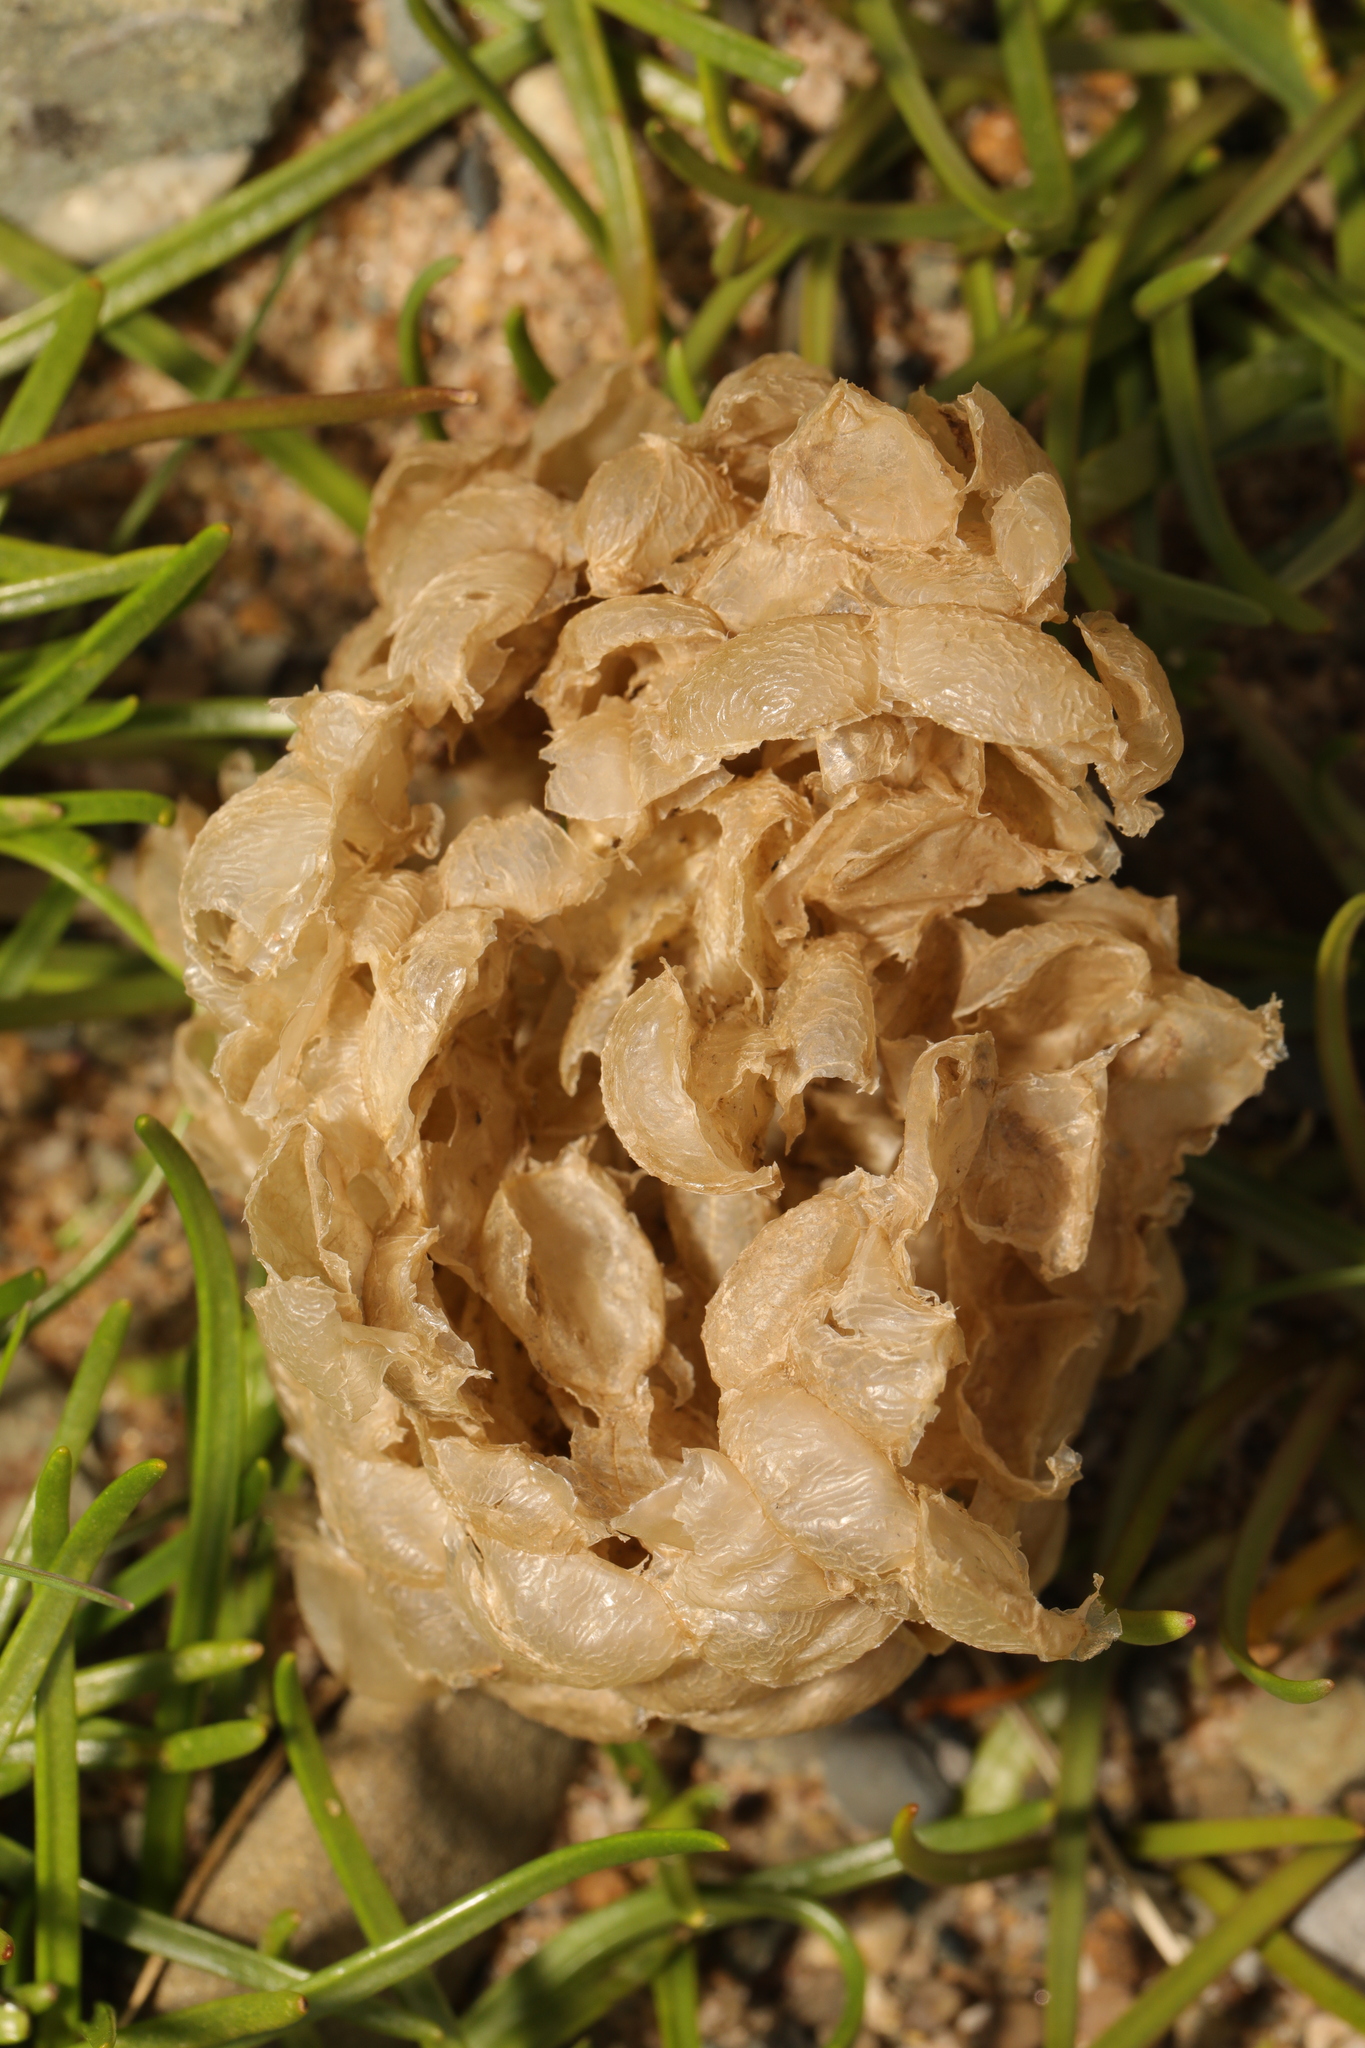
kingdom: Animalia
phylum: Mollusca
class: Gastropoda
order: Neogastropoda
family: Buccinidae
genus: Buccinum
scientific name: Buccinum undatum
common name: Common whelk
